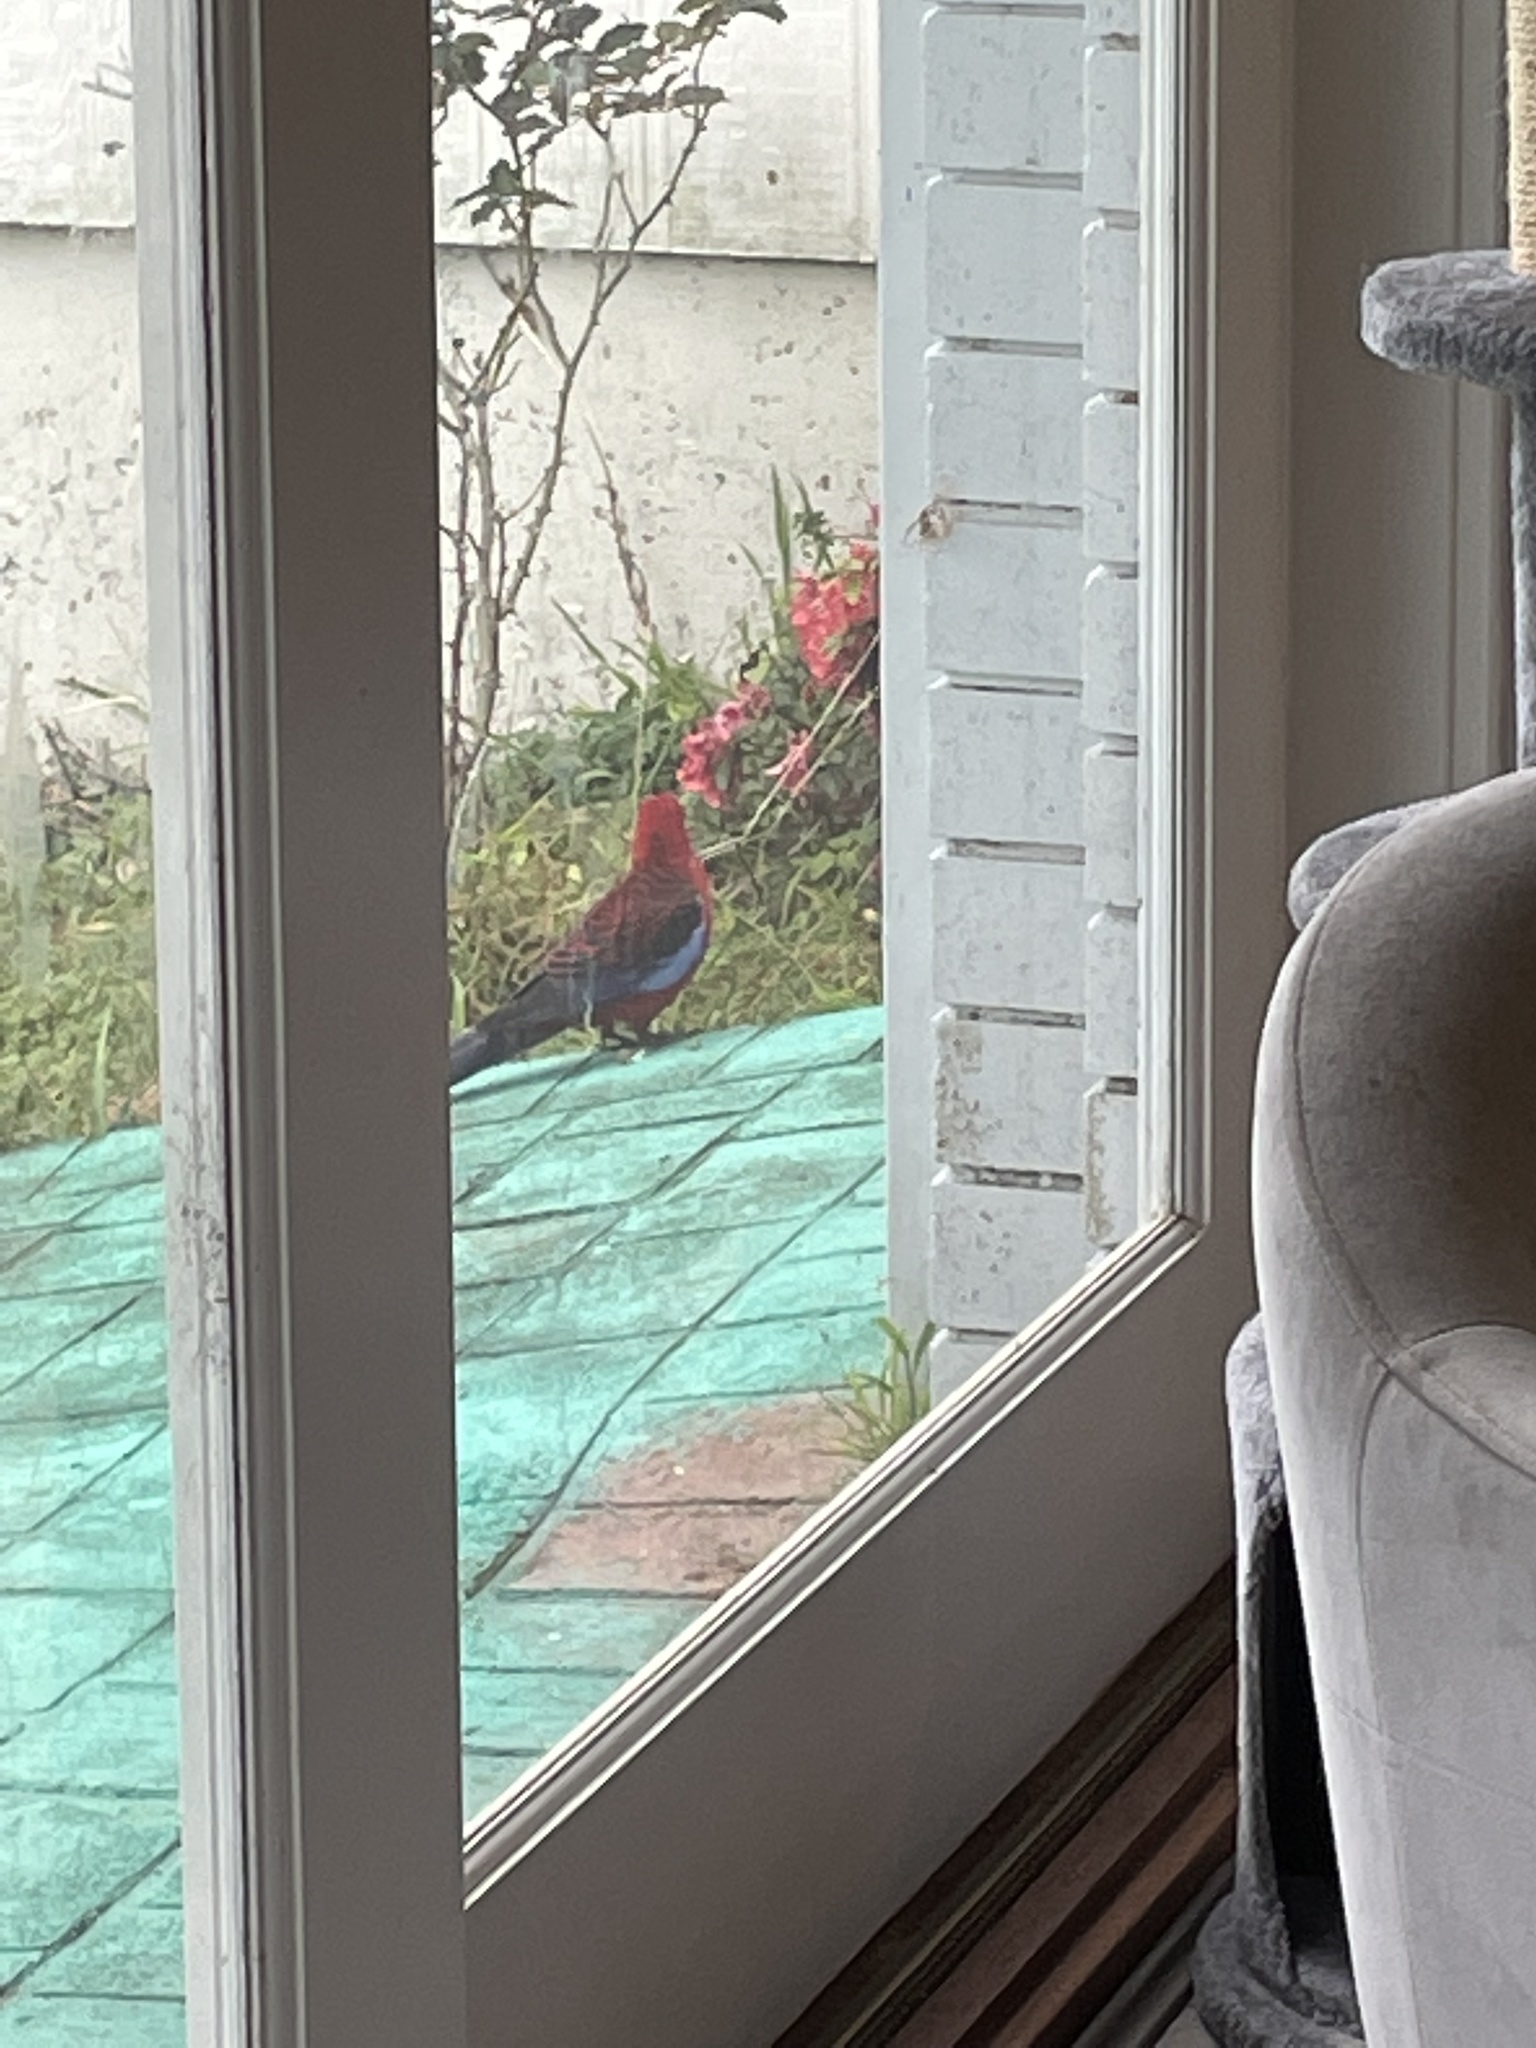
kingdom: Animalia
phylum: Chordata
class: Aves
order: Psittaciformes
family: Psittacidae
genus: Platycercus
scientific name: Platycercus elegans
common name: Crimson rosella
